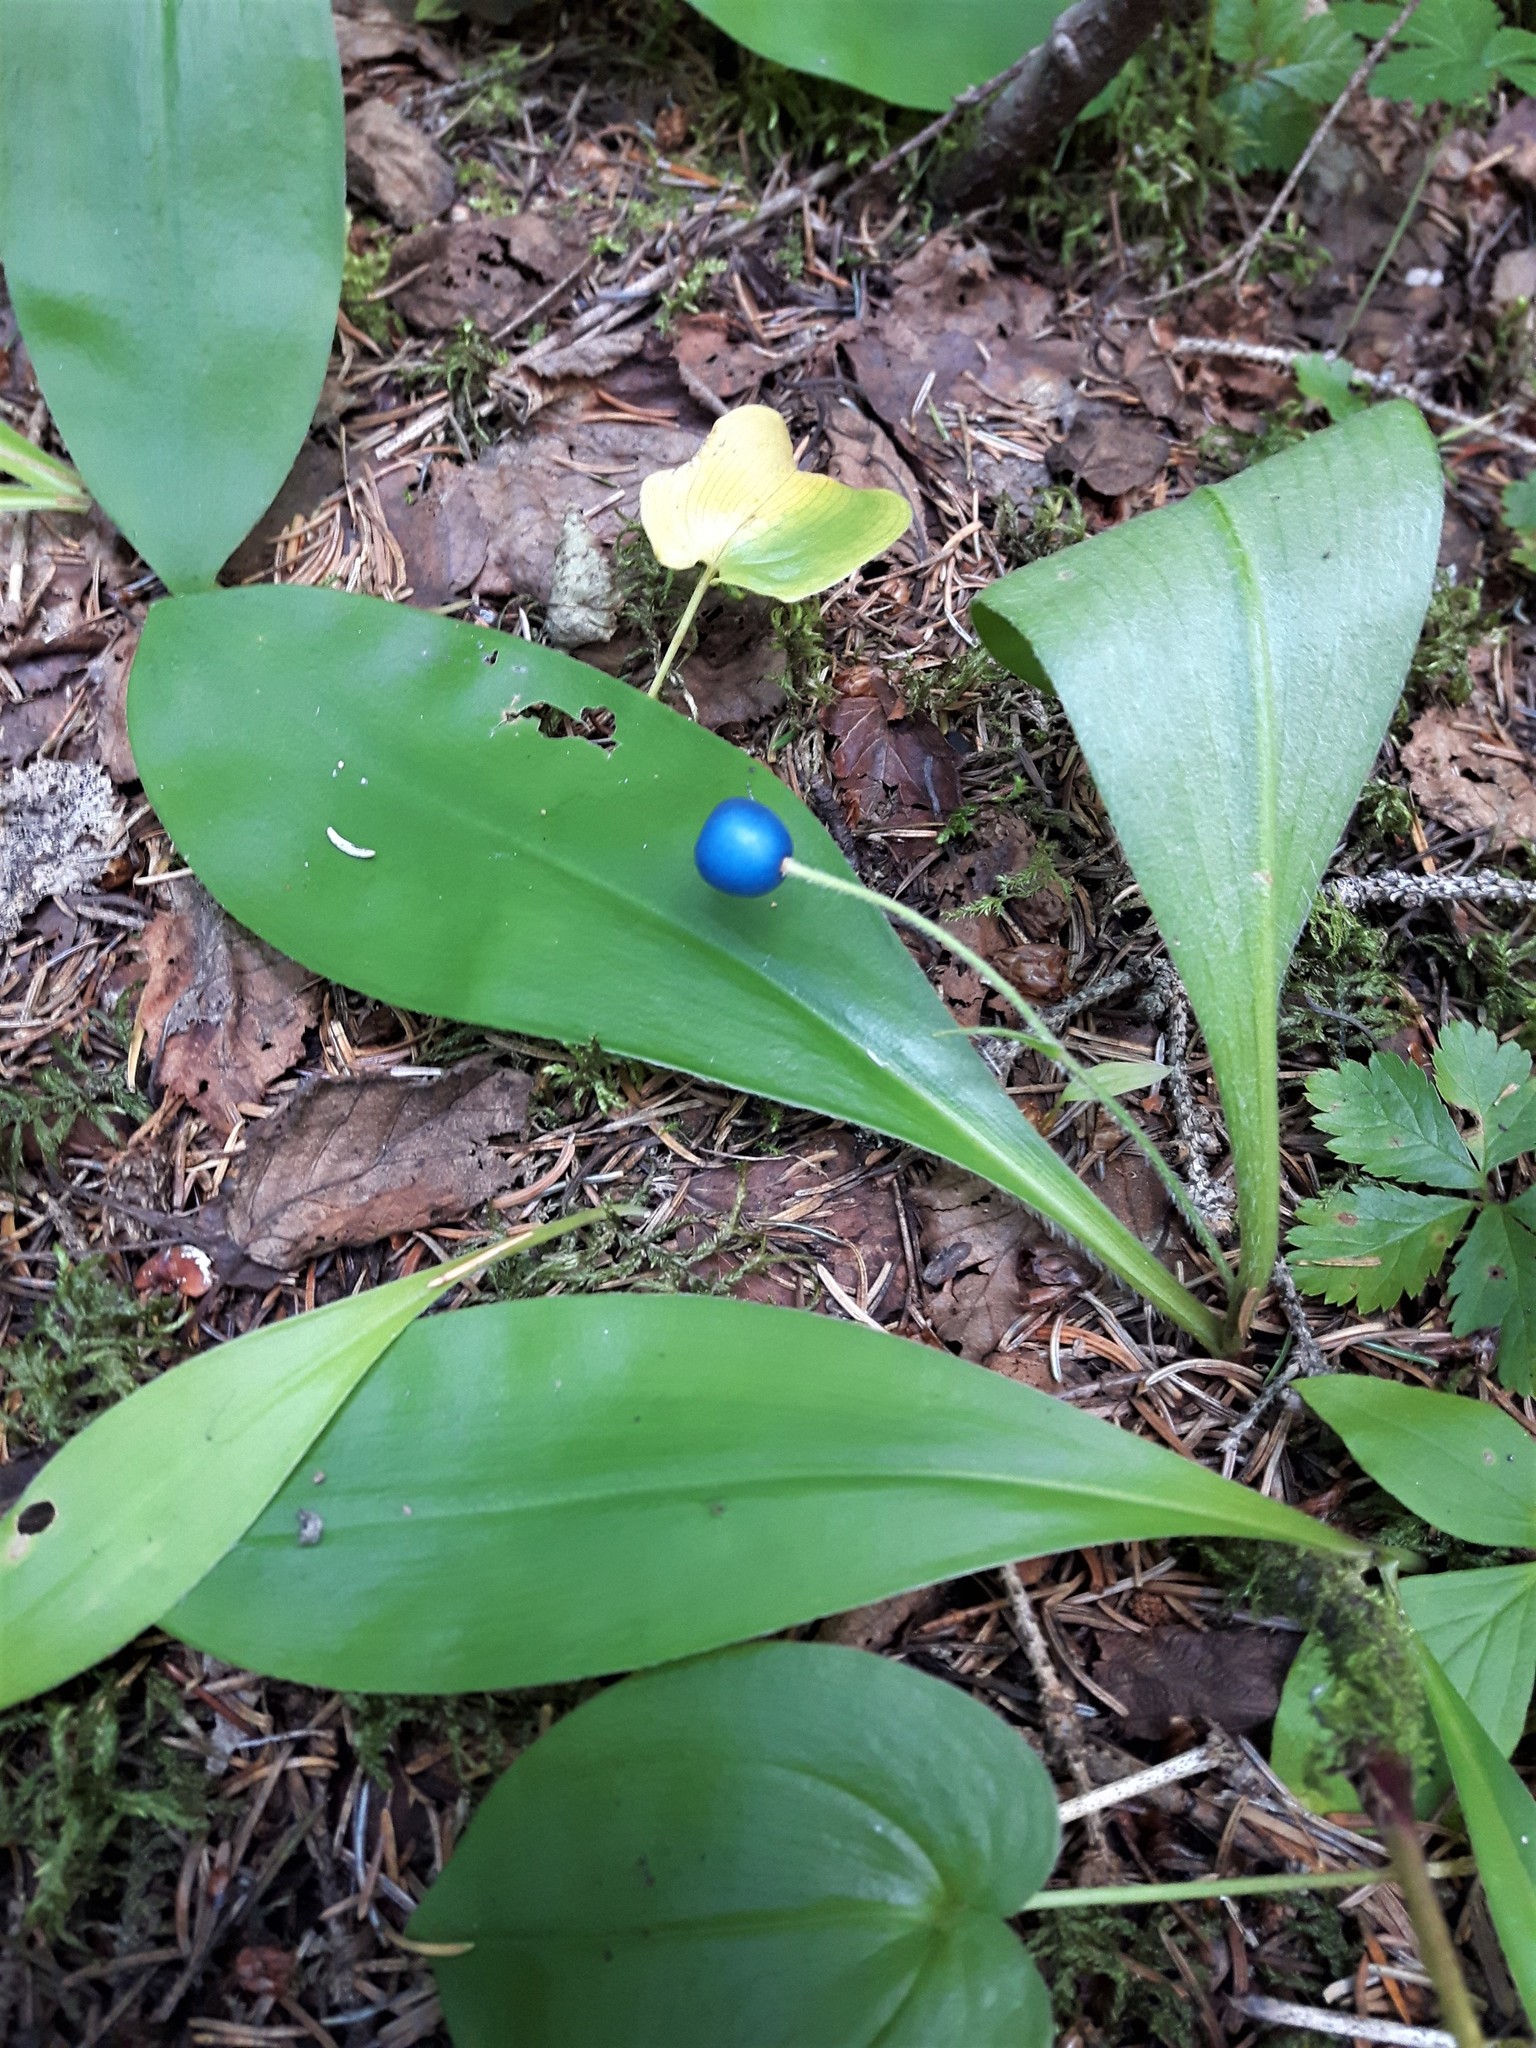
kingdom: Plantae
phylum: Tracheophyta
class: Liliopsida
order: Liliales
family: Liliaceae
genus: Clintonia
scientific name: Clintonia uniflora
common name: Queen's cup
